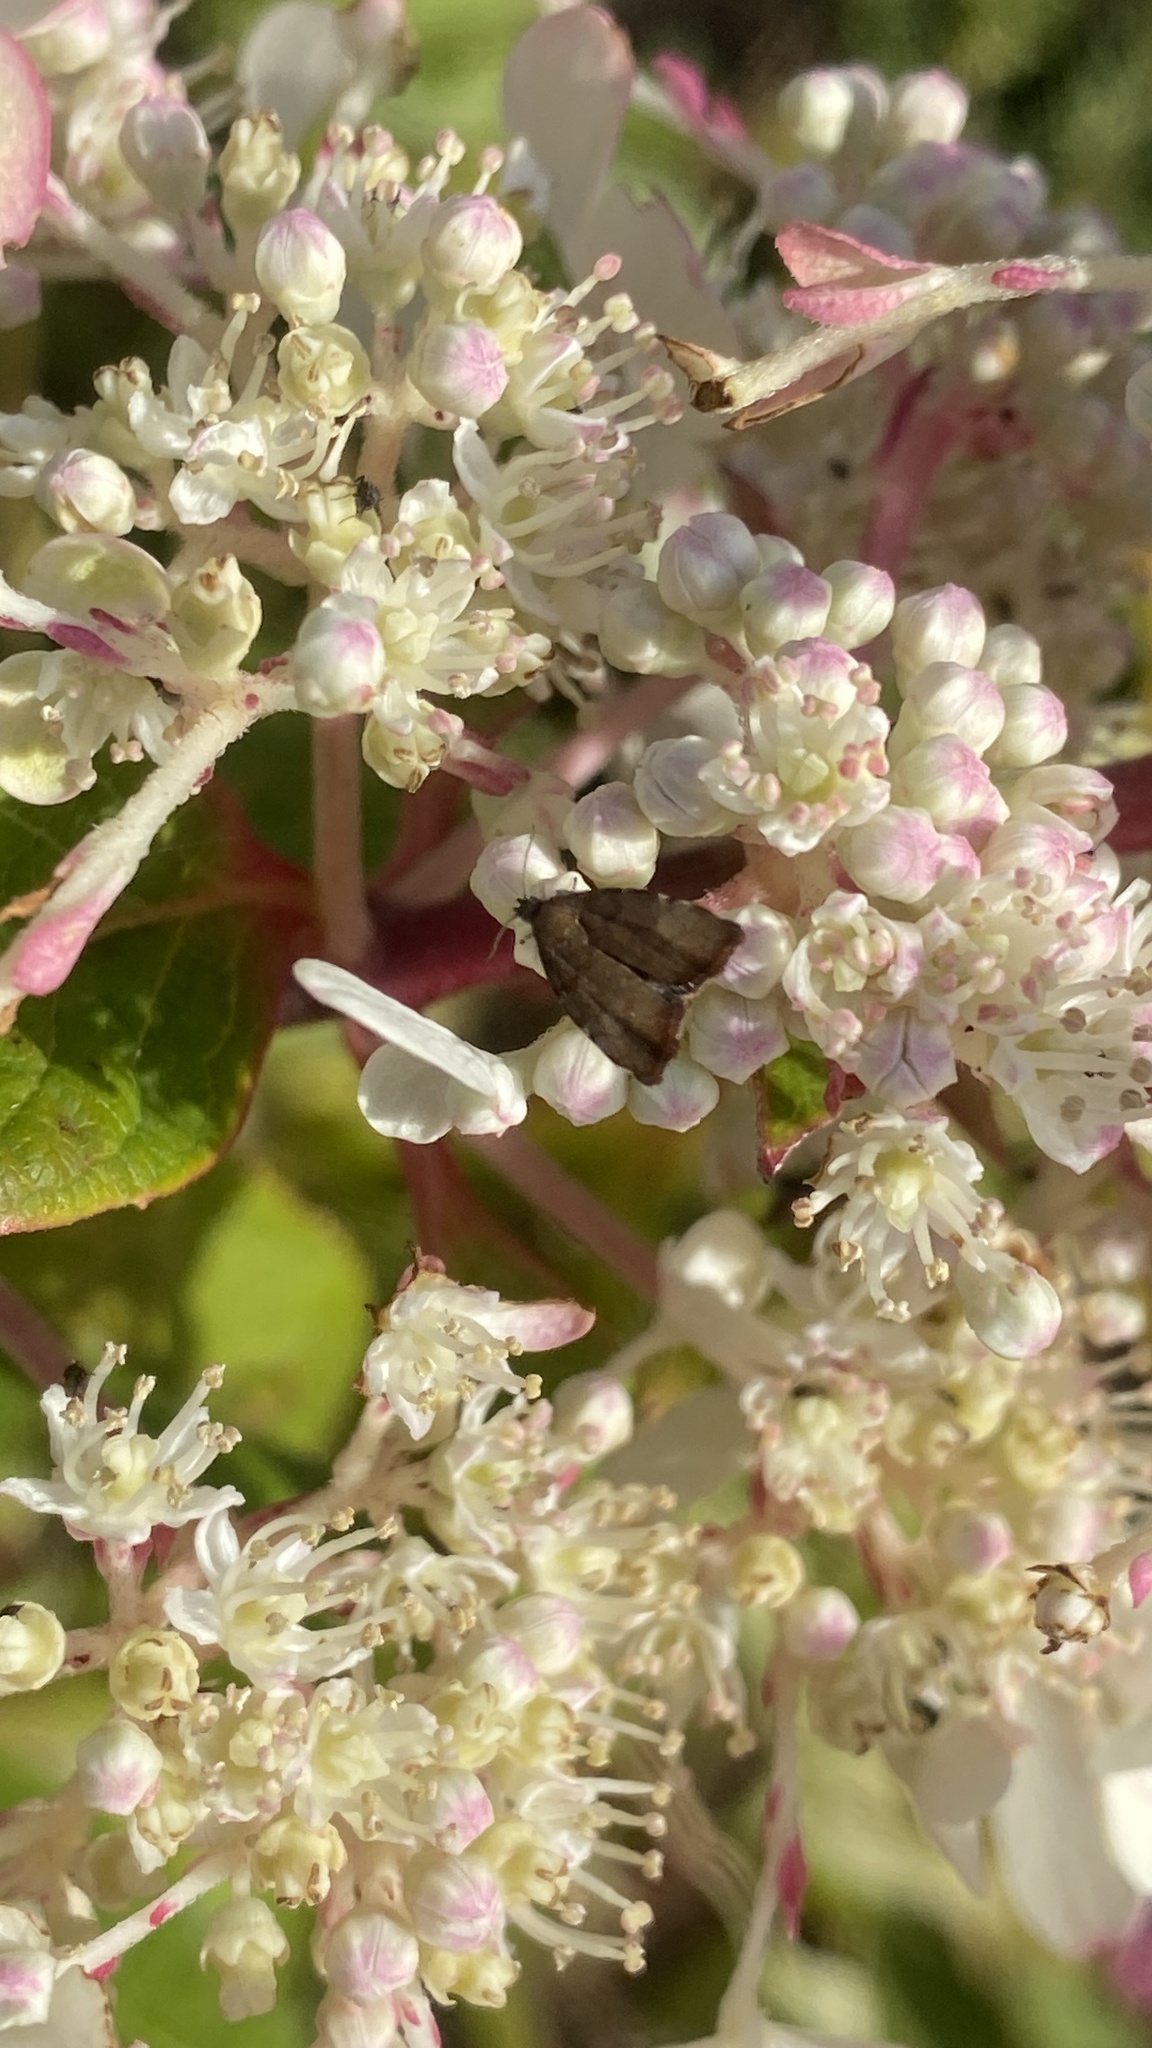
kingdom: Animalia
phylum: Arthropoda
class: Insecta
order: Lepidoptera
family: Choreutidae
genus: Choreutis
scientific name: Choreutis pariana
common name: Apple leaf skeletoniser
